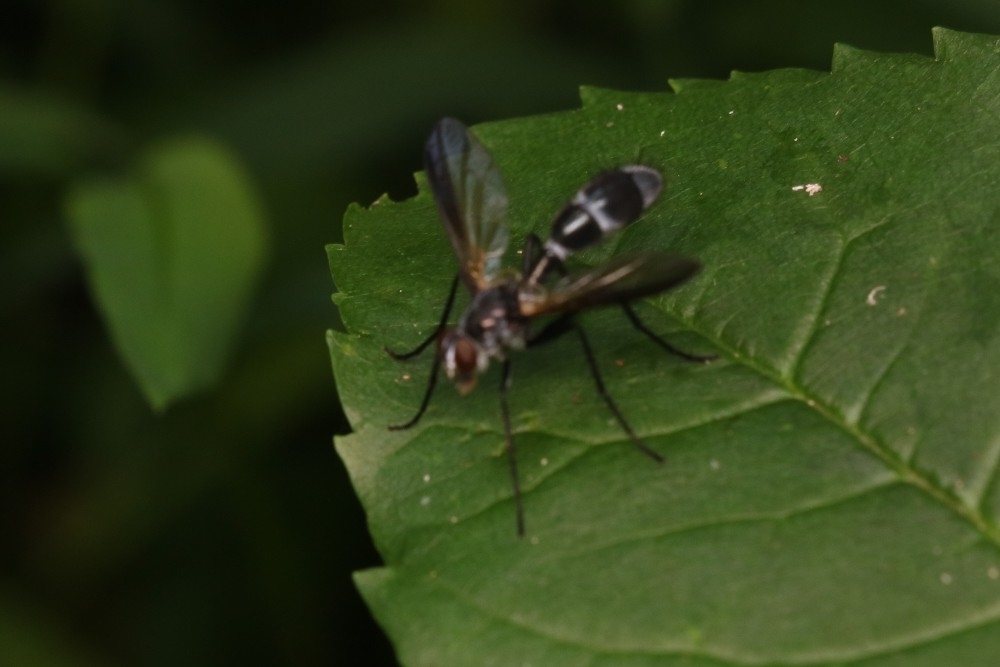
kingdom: Animalia
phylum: Arthropoda
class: Insecta
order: Diptera
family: Tachinidae
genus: Cordyligaster
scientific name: Cordyligaster septentrionalis
